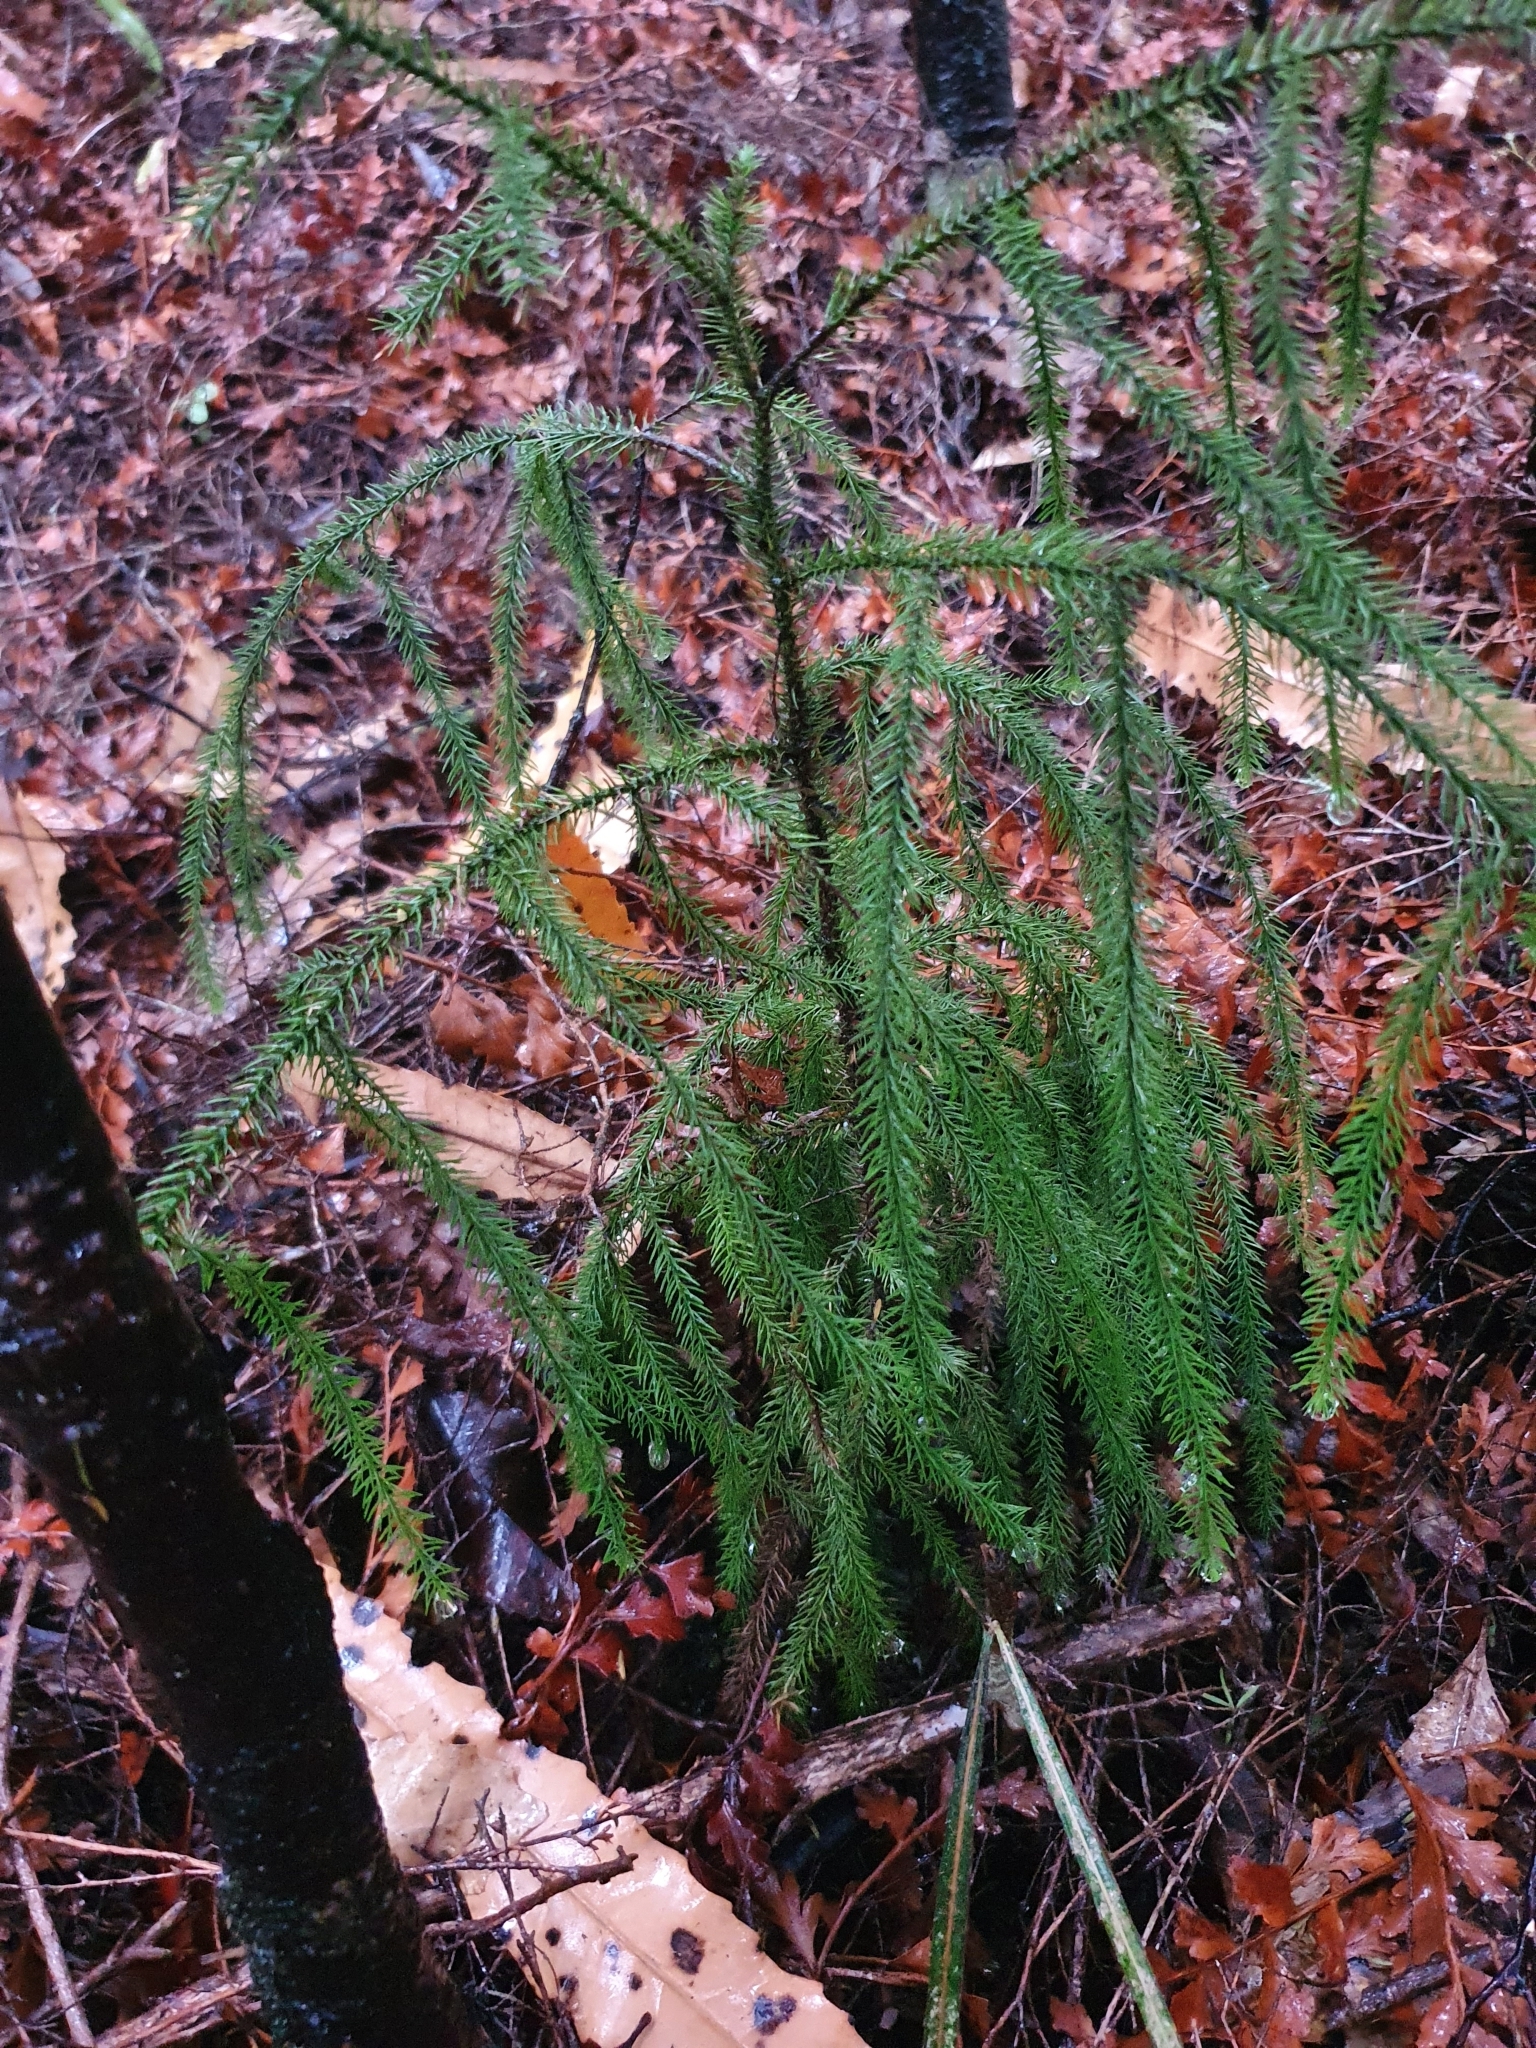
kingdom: Plantae
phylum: Tracheophyta
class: Pinopsida
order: Pinales
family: Podocarpaceae
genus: Dacrydium
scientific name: Dacrydium cupressinum
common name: Red pine
